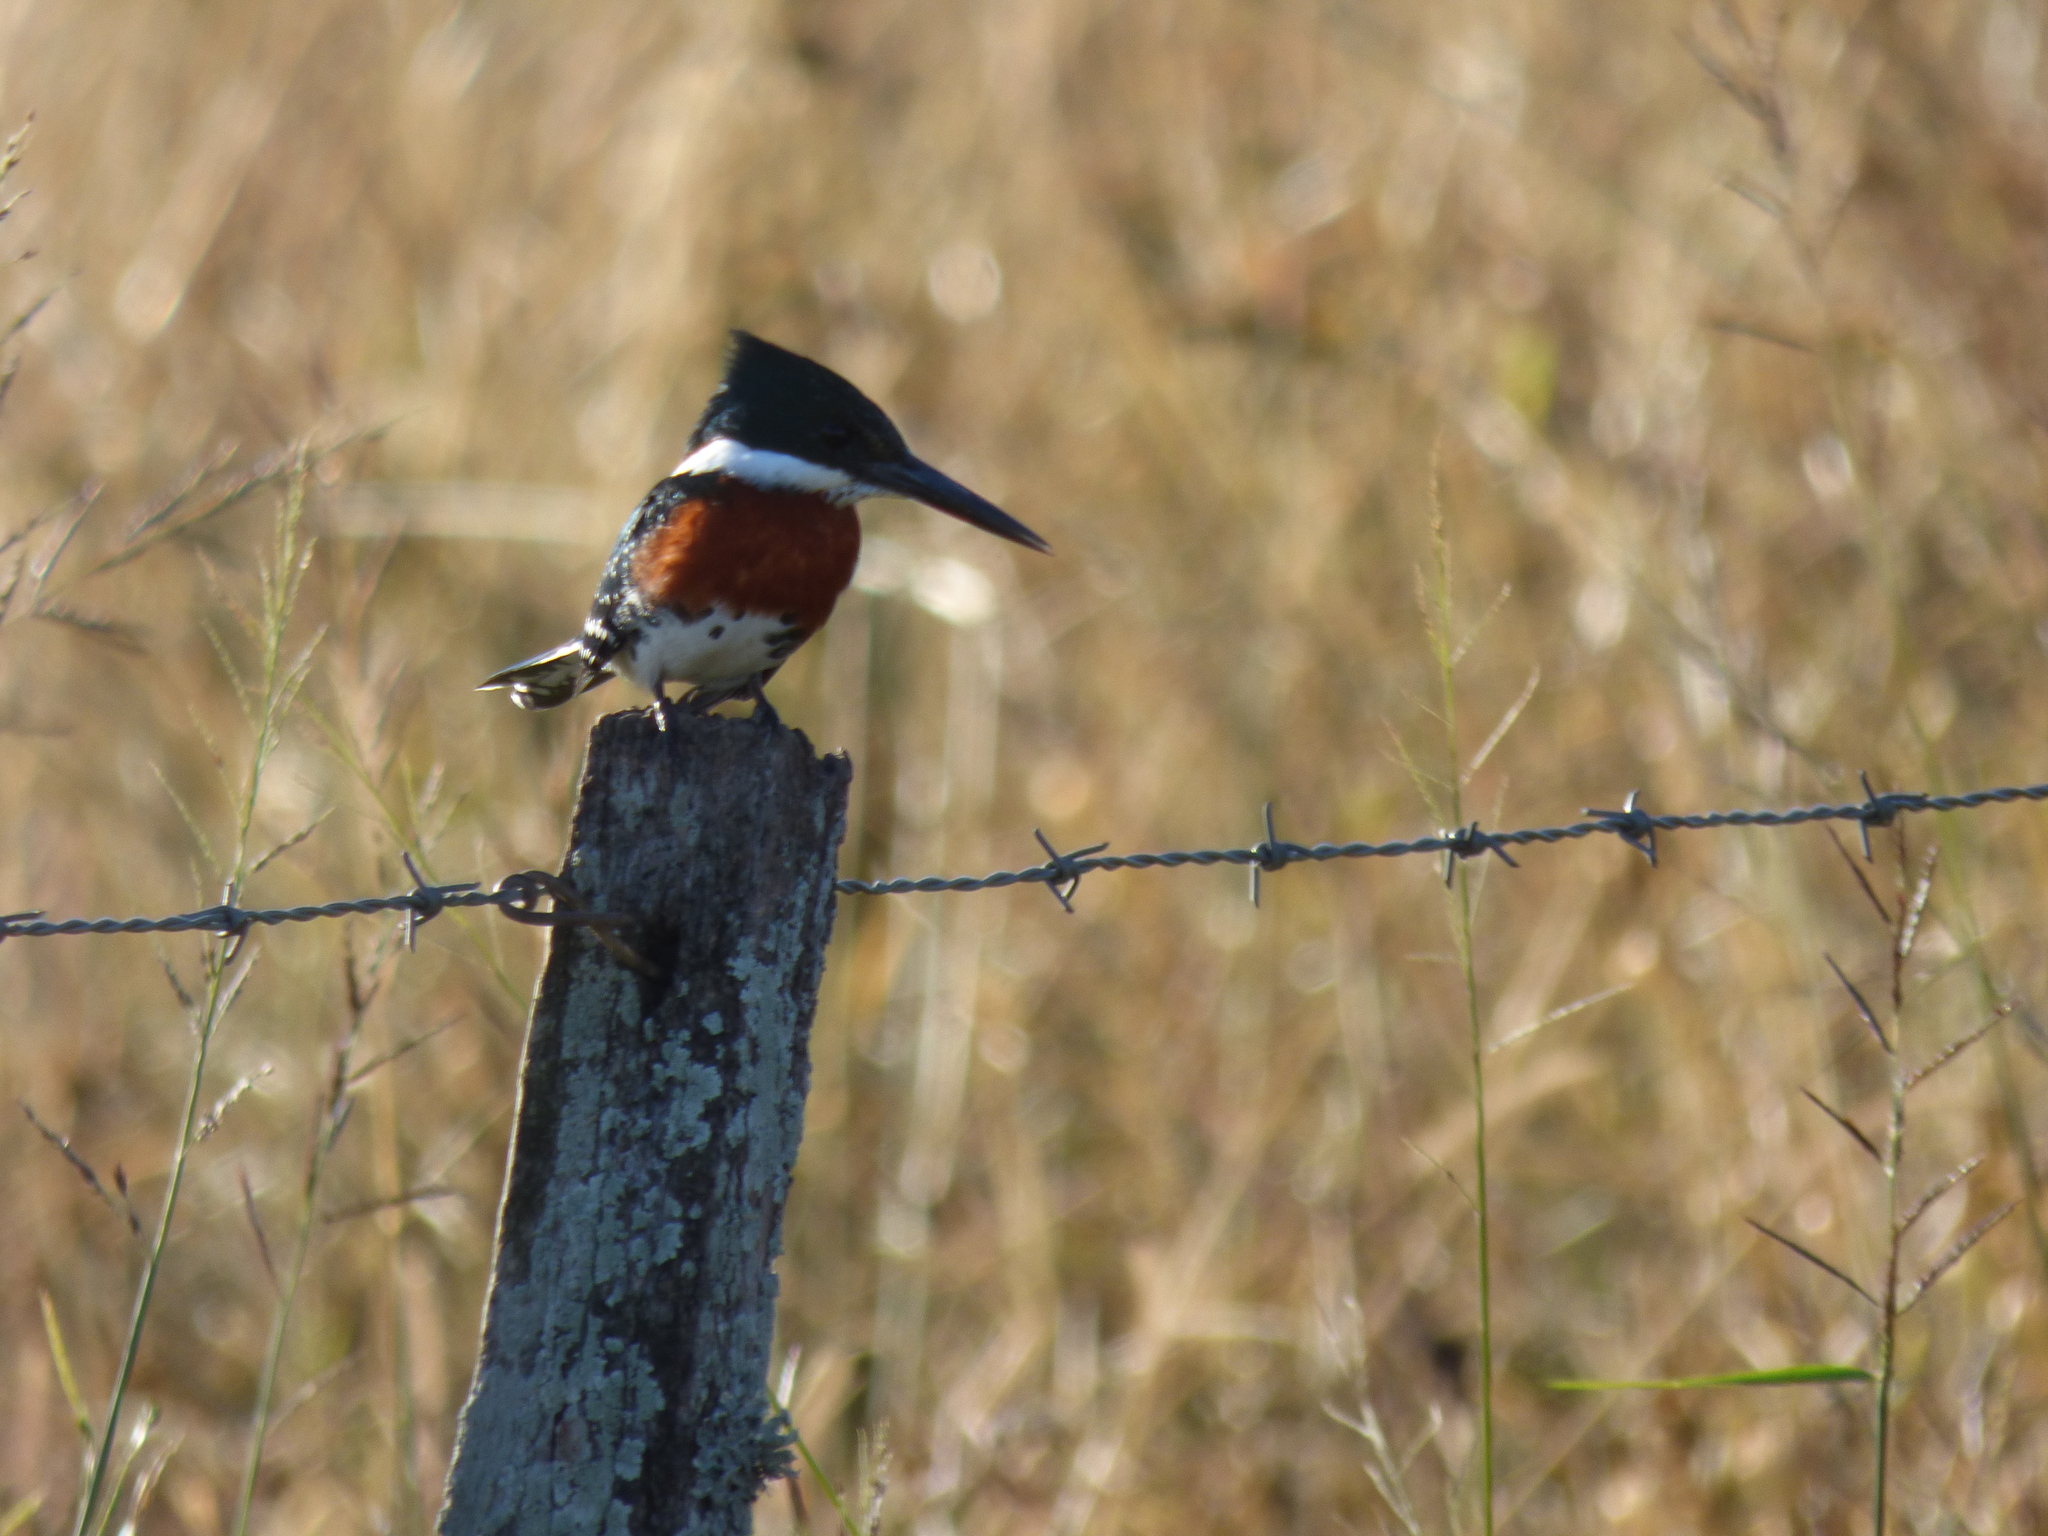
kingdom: Animalia
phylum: Chordata
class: Aves
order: Coraciiformes
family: Alcedinidae
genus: Chloroceryle
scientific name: Chloroceryle americana
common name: Green kingfisher
